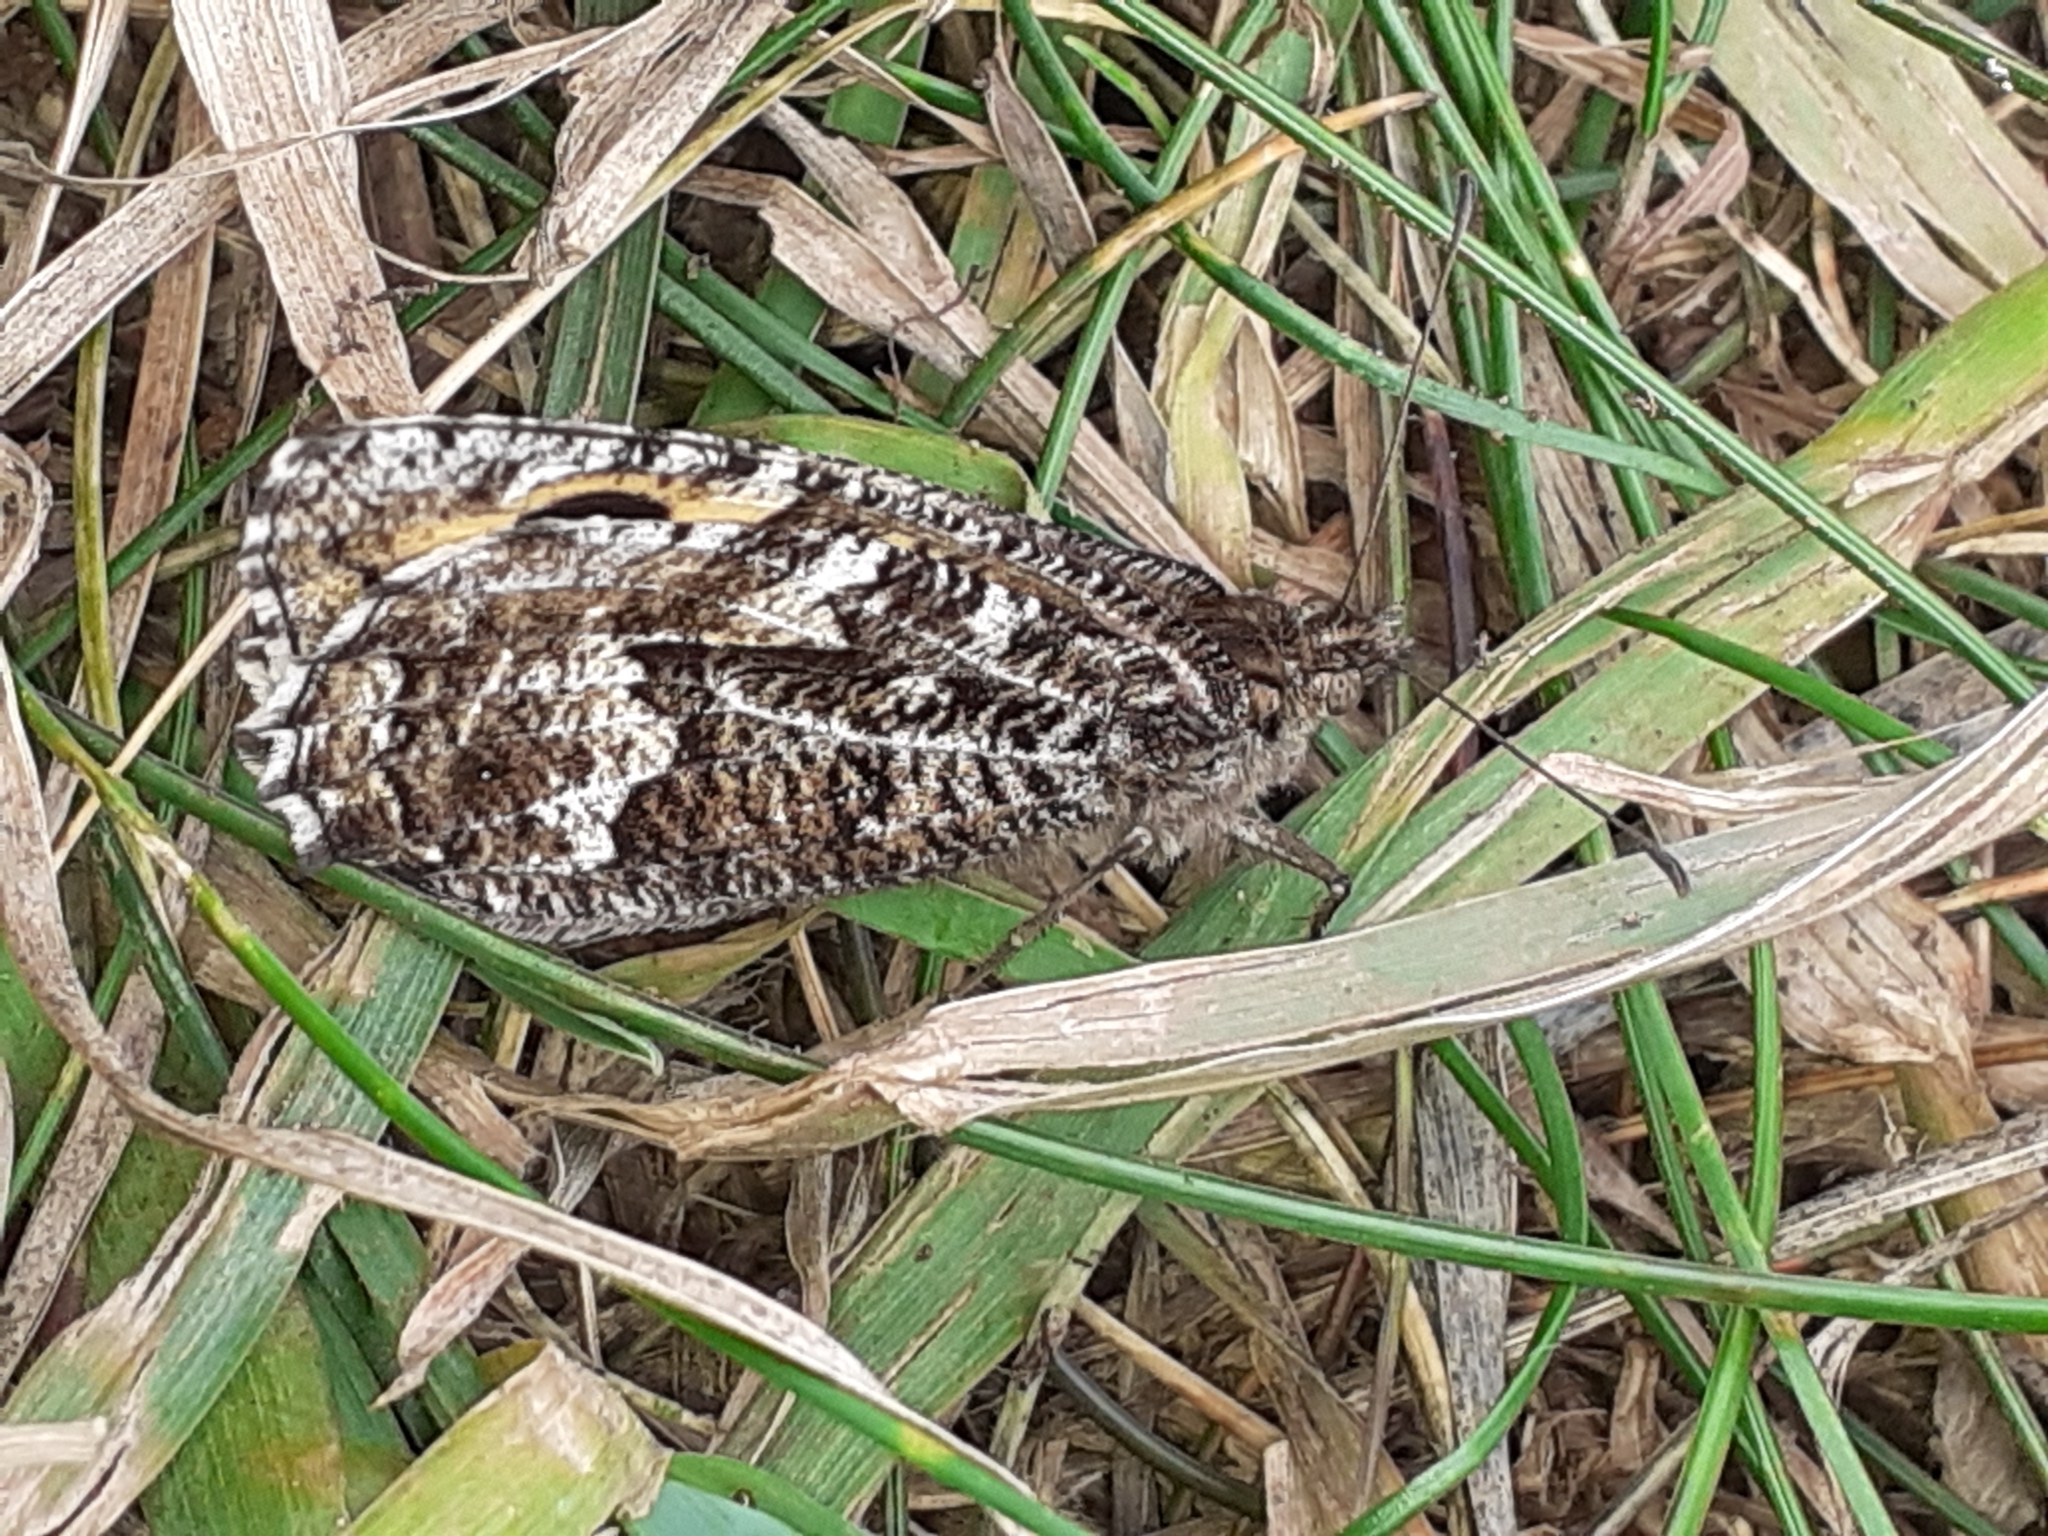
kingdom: Animalia
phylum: Arthropoda
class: Insecta
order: Lepidoptera
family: Nymphalidae
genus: Hipparchia
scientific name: Hipparchia semele
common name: Grayling
